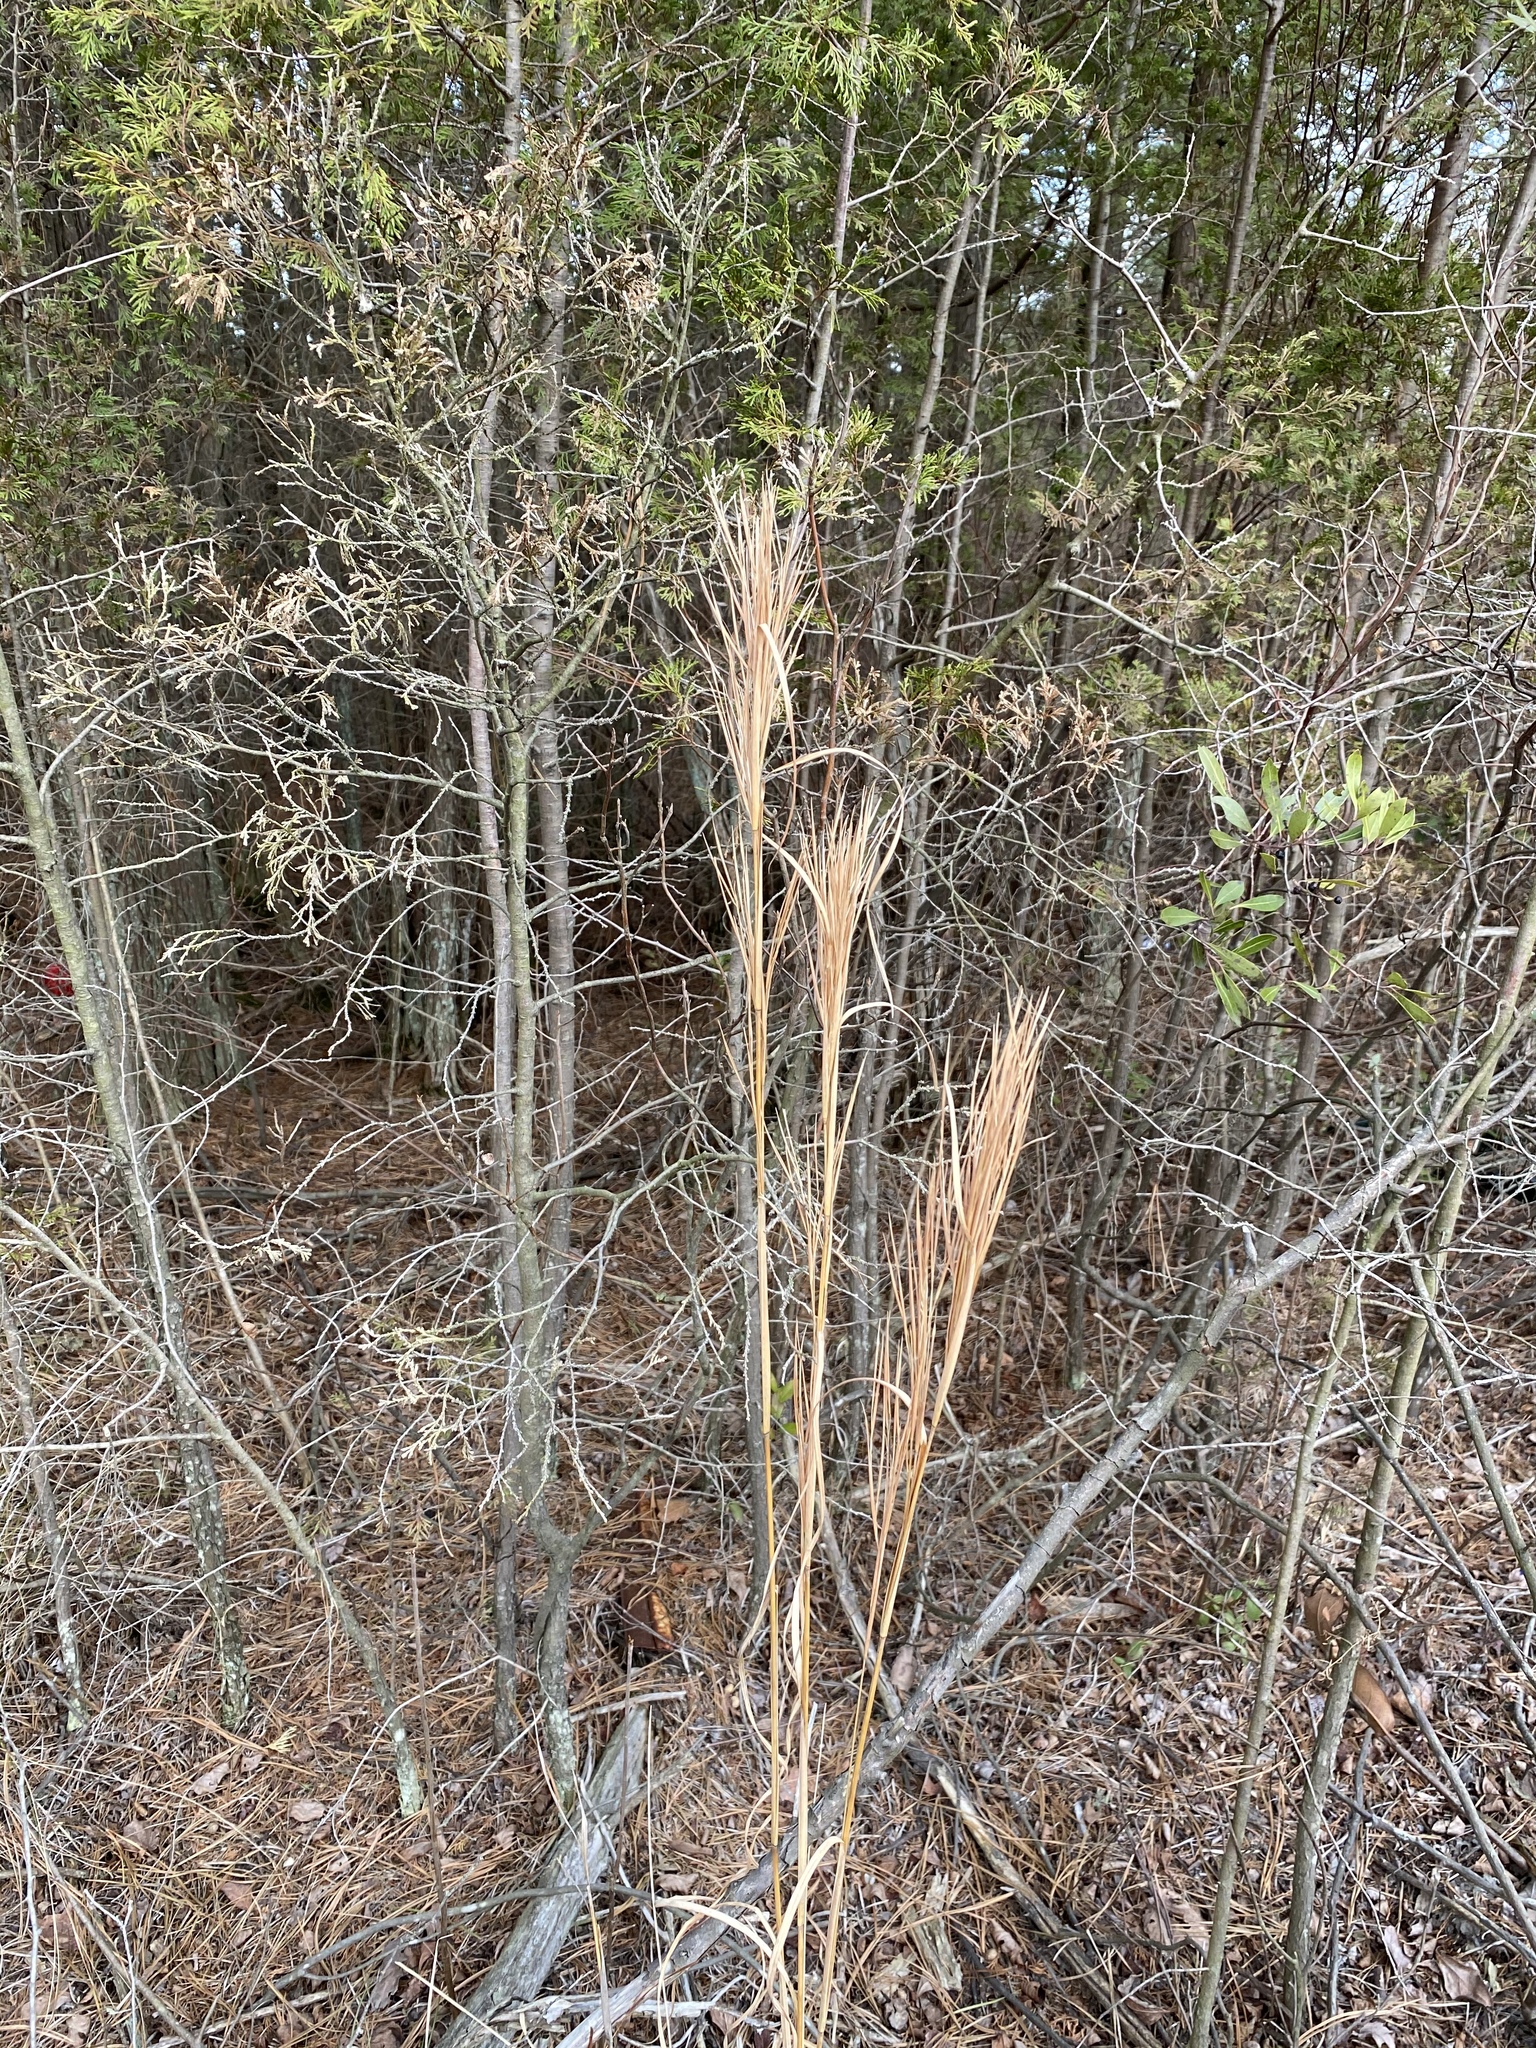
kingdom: Plantae
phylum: Tracheophyta
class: Liliopsida
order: Poales
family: Poaceae
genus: Andropogon
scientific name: Andropogon glomeratus
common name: Bushy beard grass
